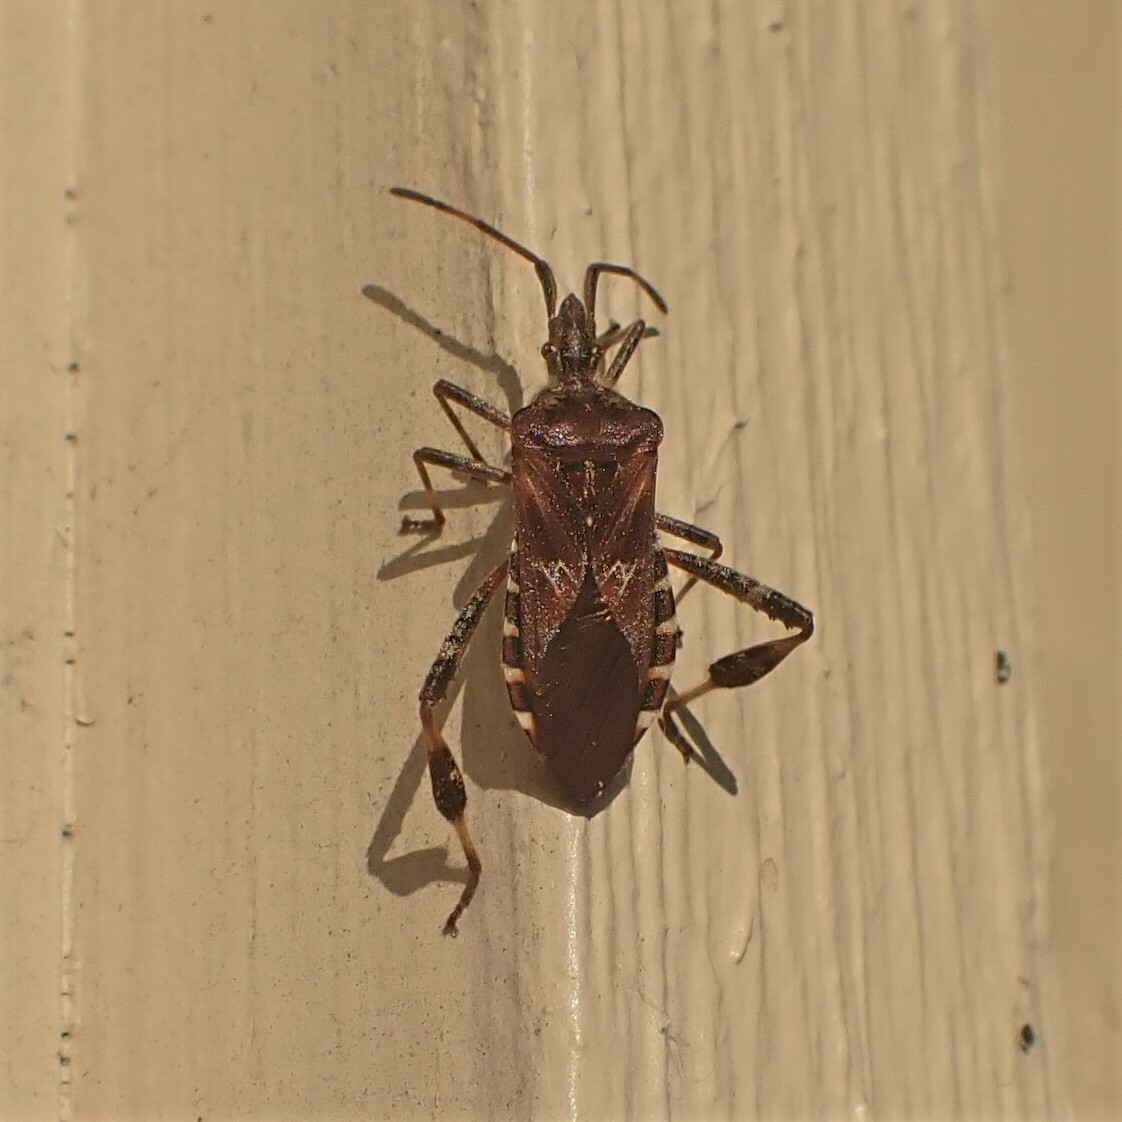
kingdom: Animalia
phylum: Arthropoda
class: Insecta
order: Hemiptera
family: Coreidae
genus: Leptoglossus
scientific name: Leptoglossus occidentalis
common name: Western conifer-seed bug
